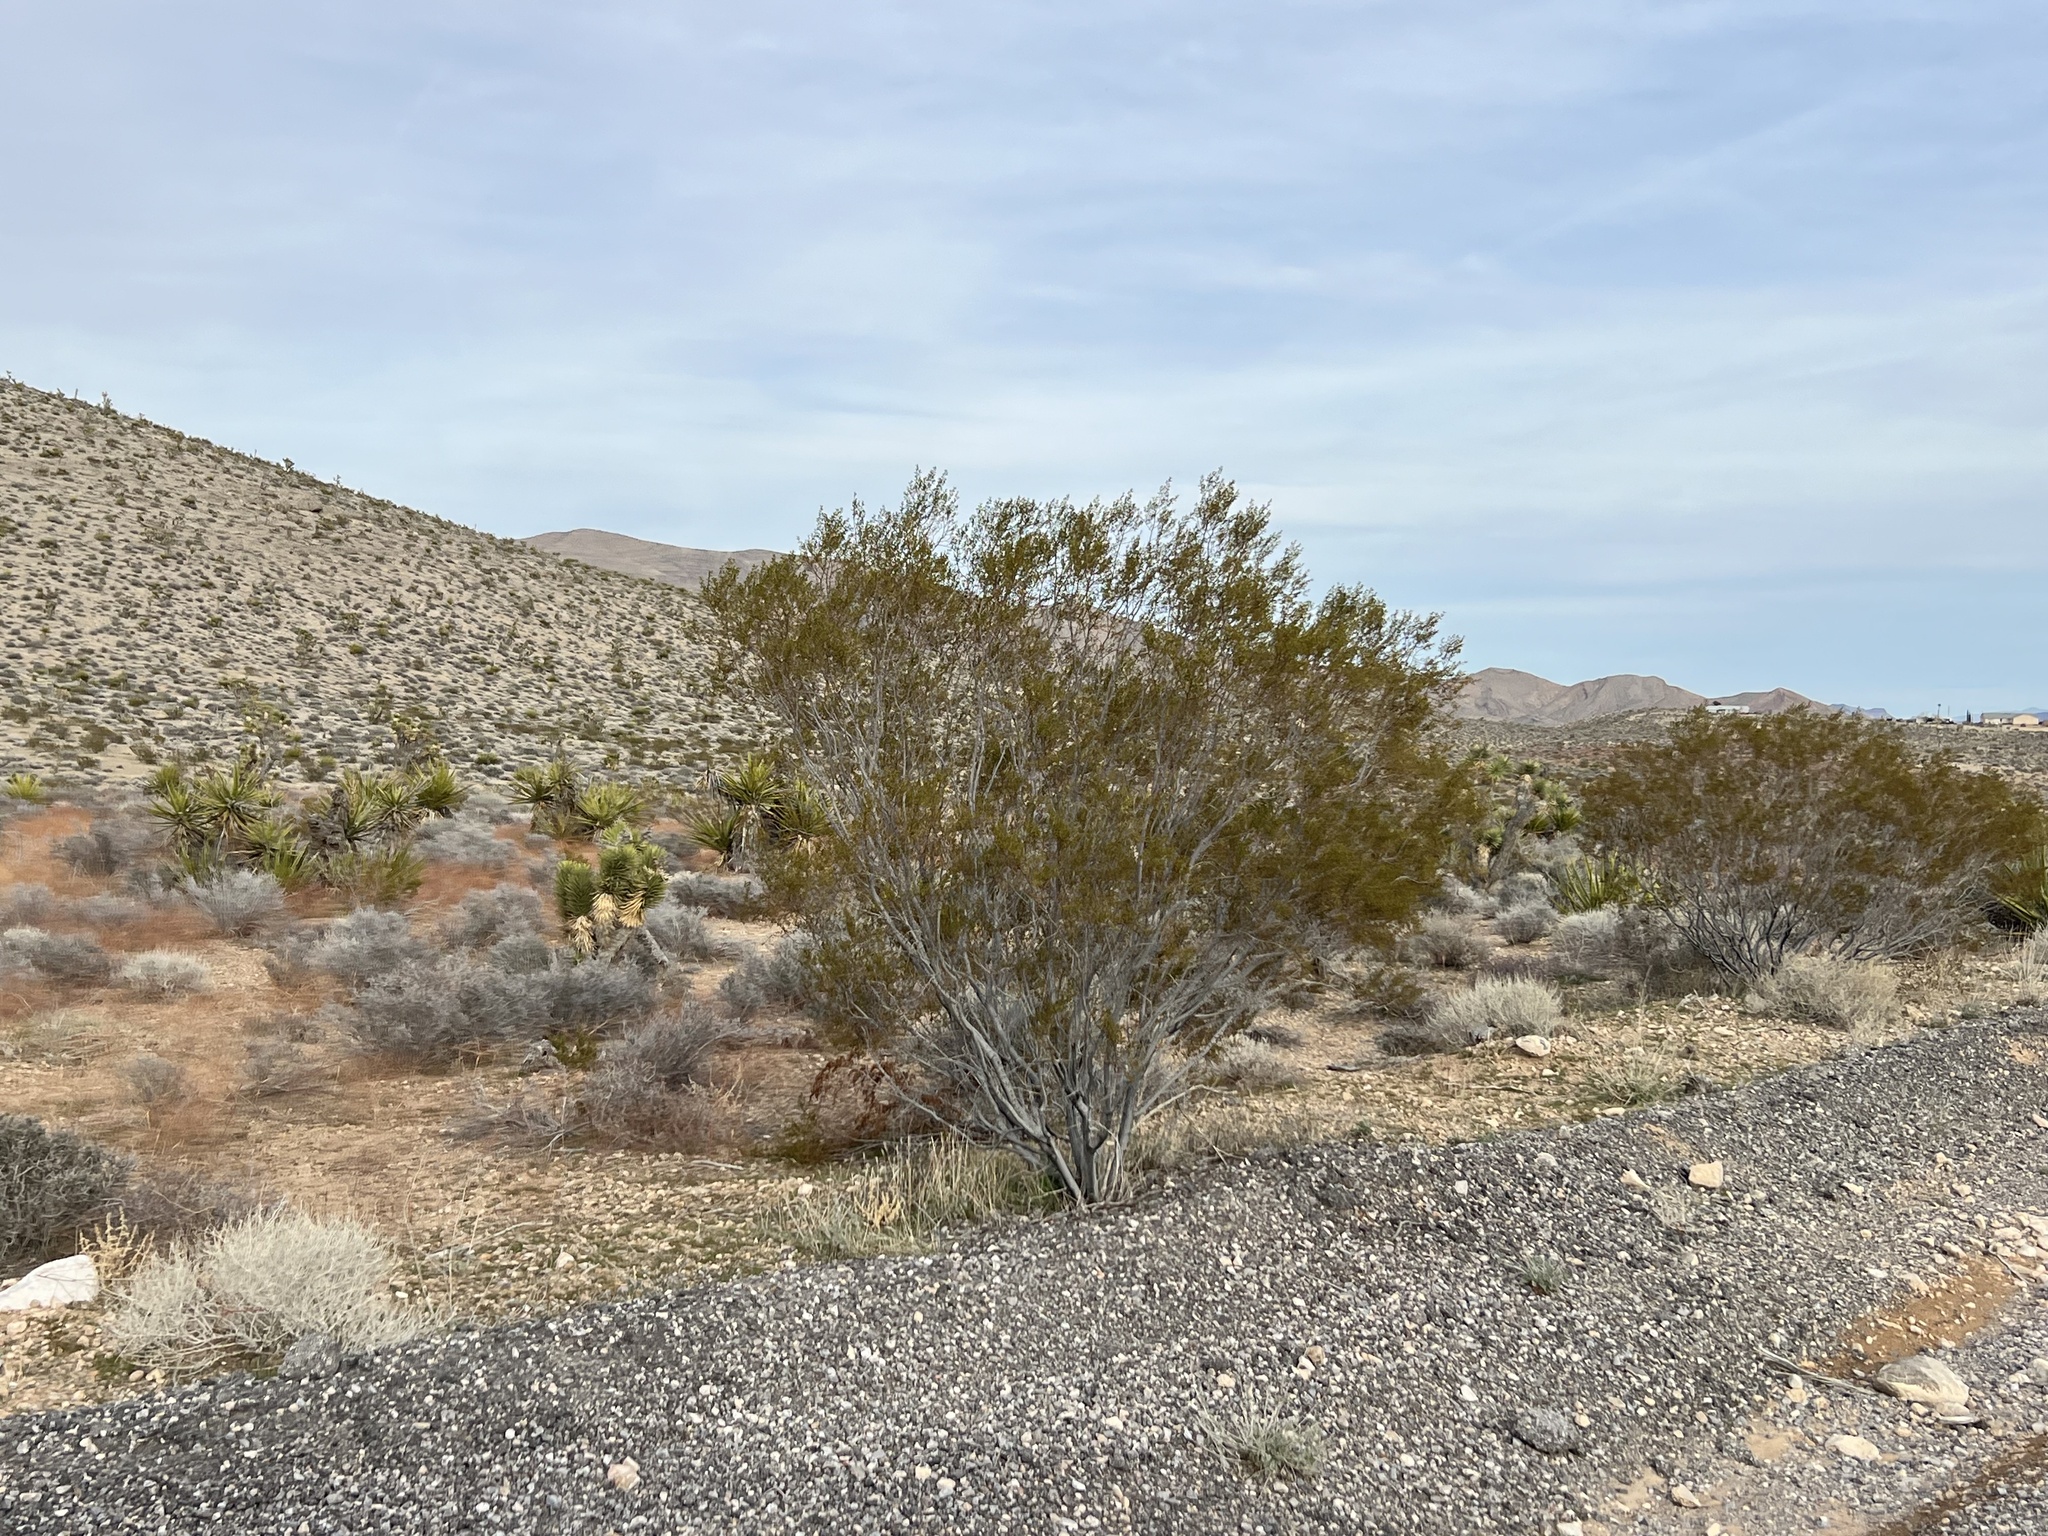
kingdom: Plantae
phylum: Tracheophyta
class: Magnoliopsida
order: Zygophyllales
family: Zygophyllaceae
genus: Larrea
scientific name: Larrea tridentata
